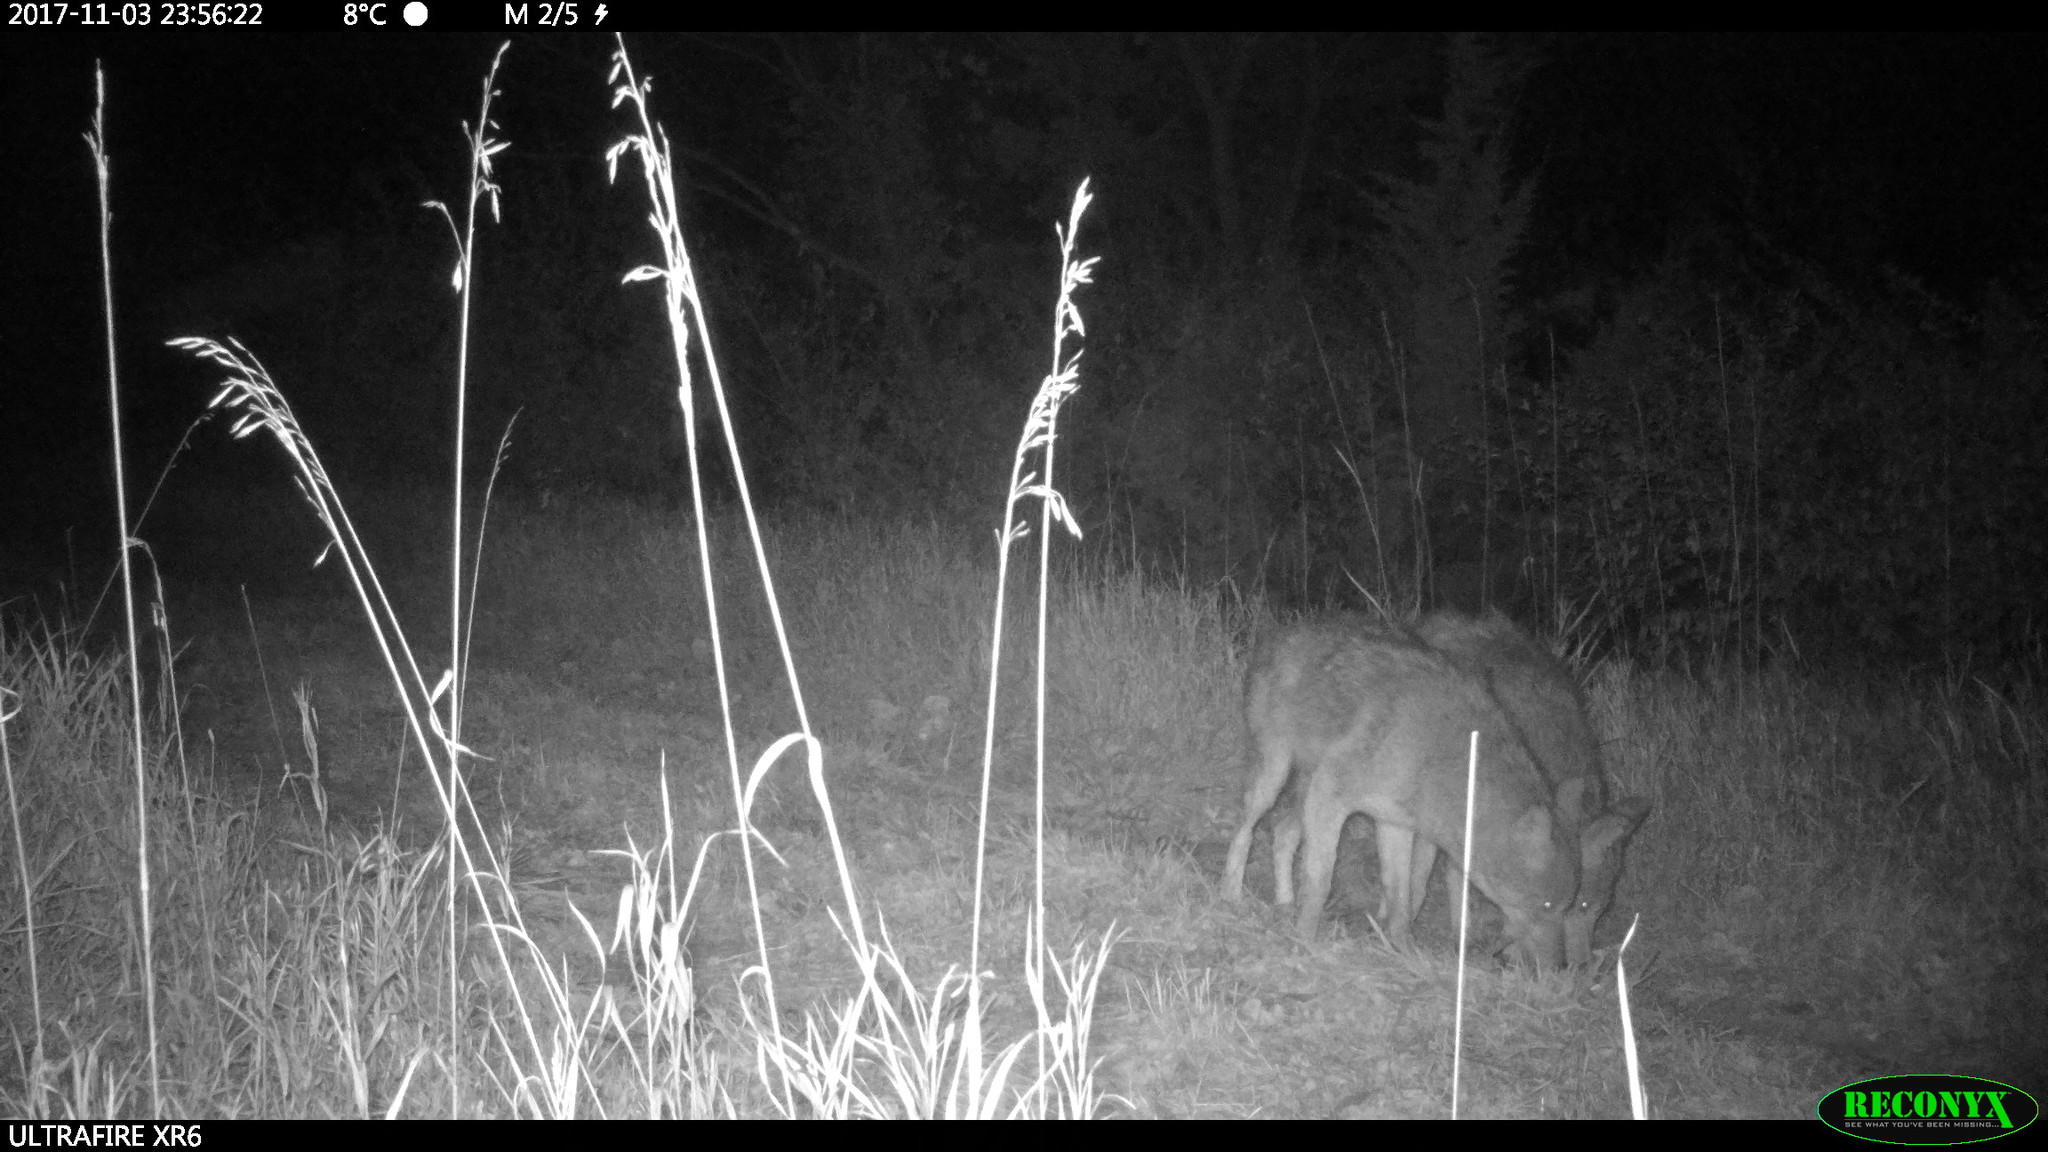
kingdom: Animalia
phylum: Chordata
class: Mammalia
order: Carnivora
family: Canidae
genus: Canis
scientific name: Canis latrans
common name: Coyote
